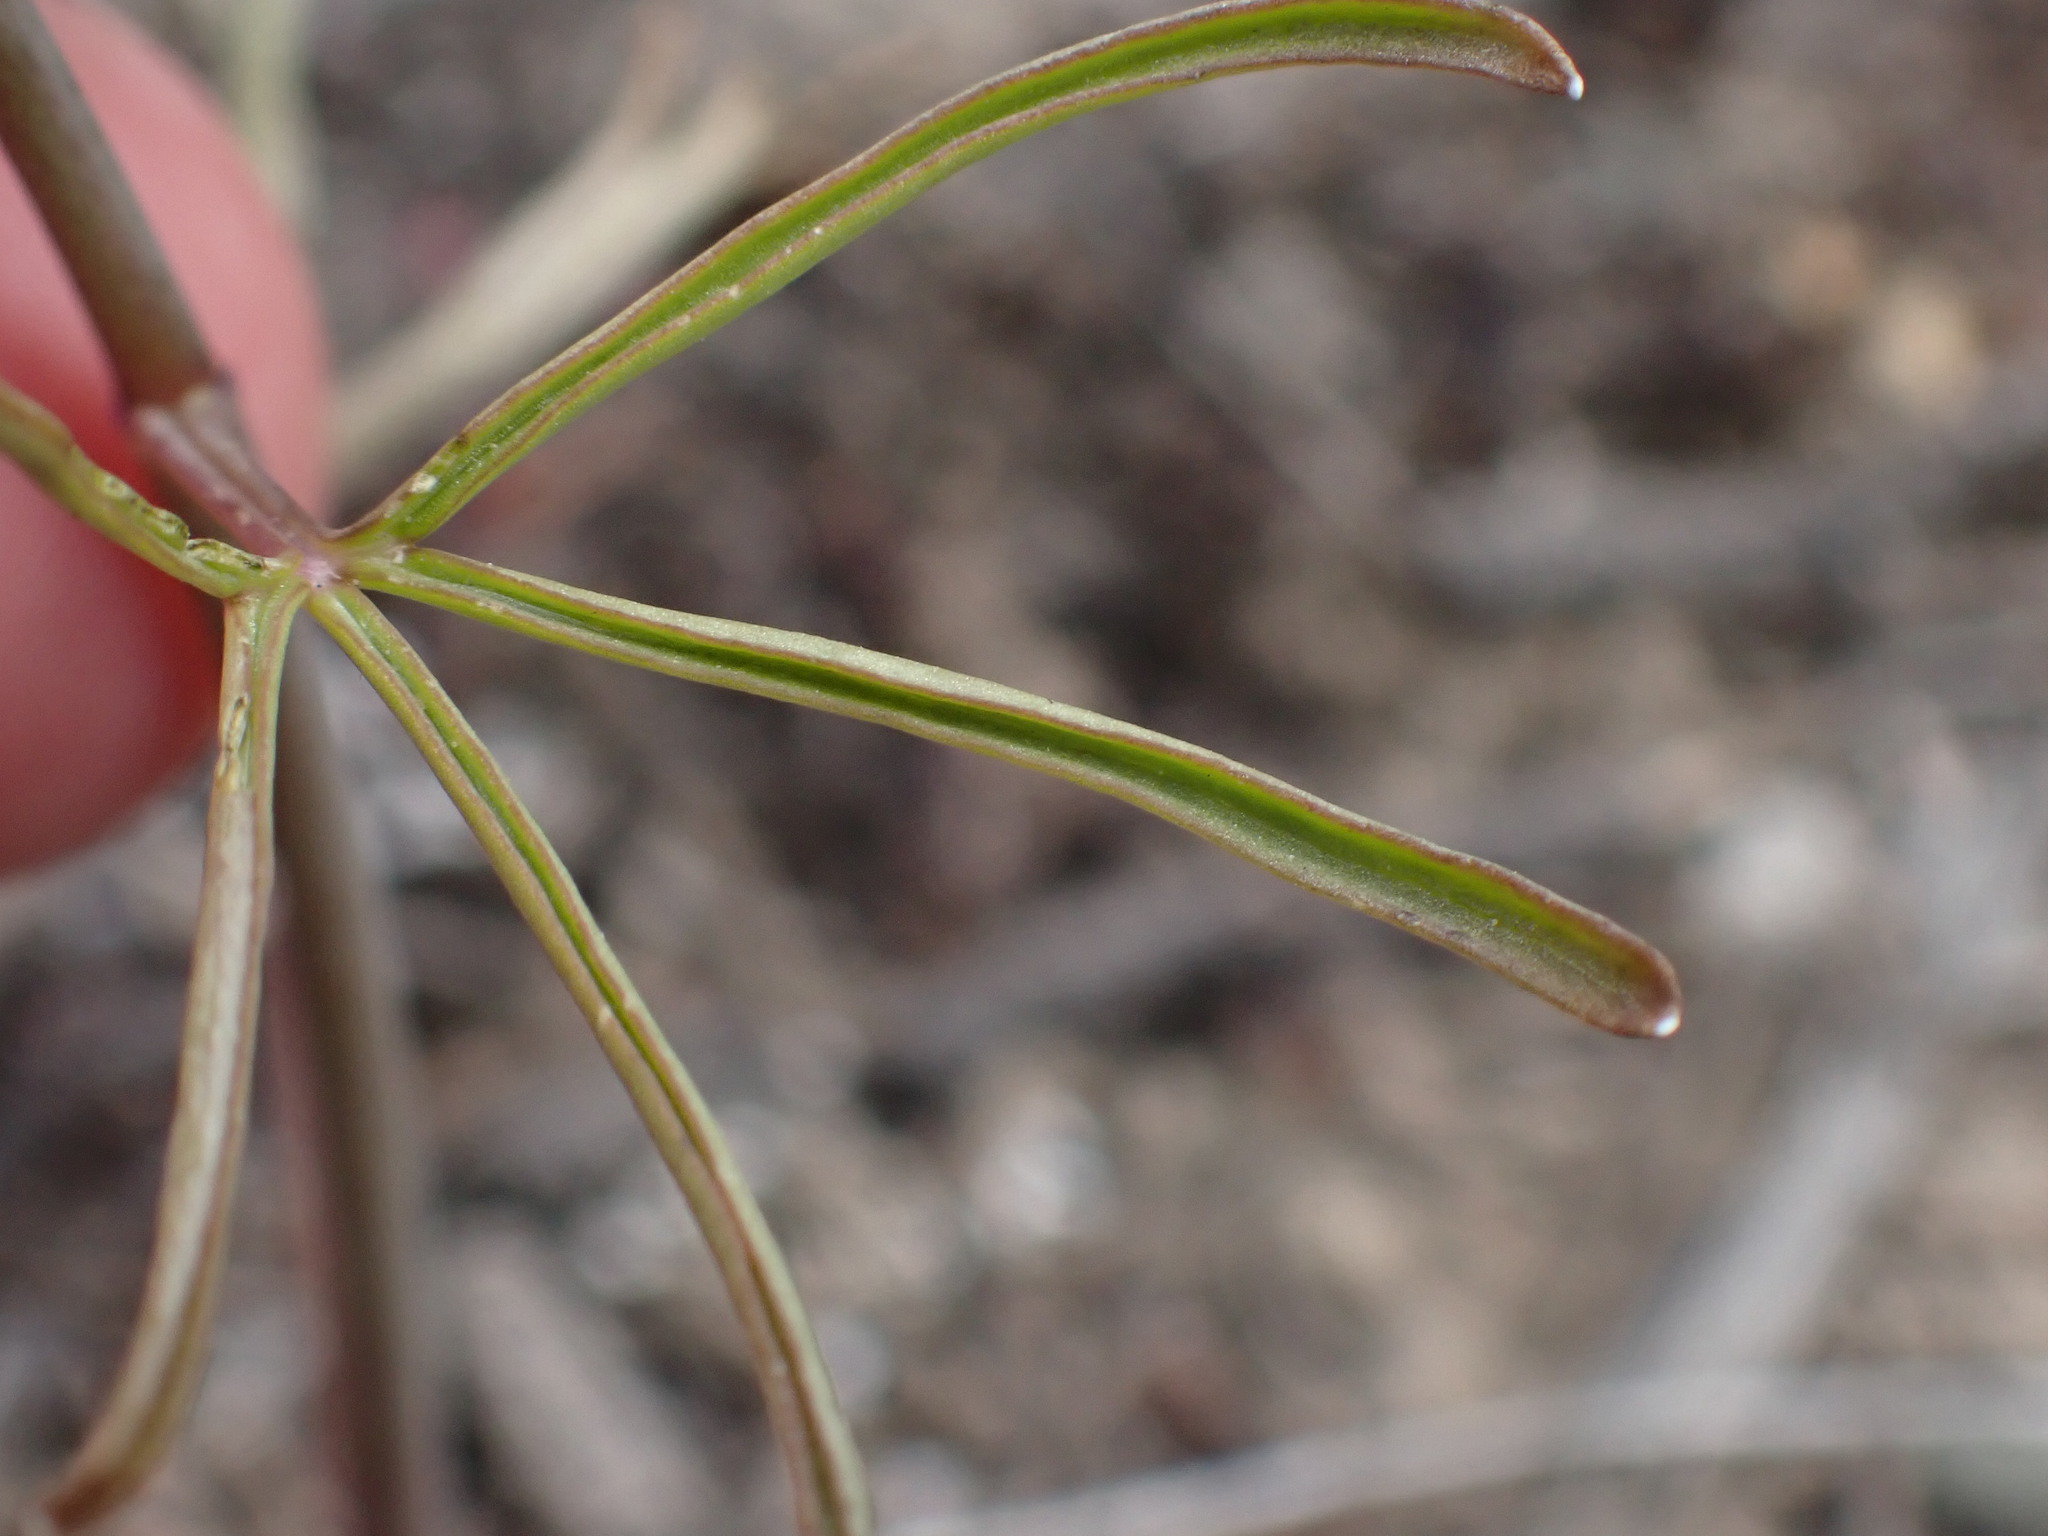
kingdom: Plantae
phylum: Tracheophyta
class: Magnoliopsida
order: Ranunculales
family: Ranunculaceae
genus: Delphinium
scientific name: Delphinium nuttallianum
